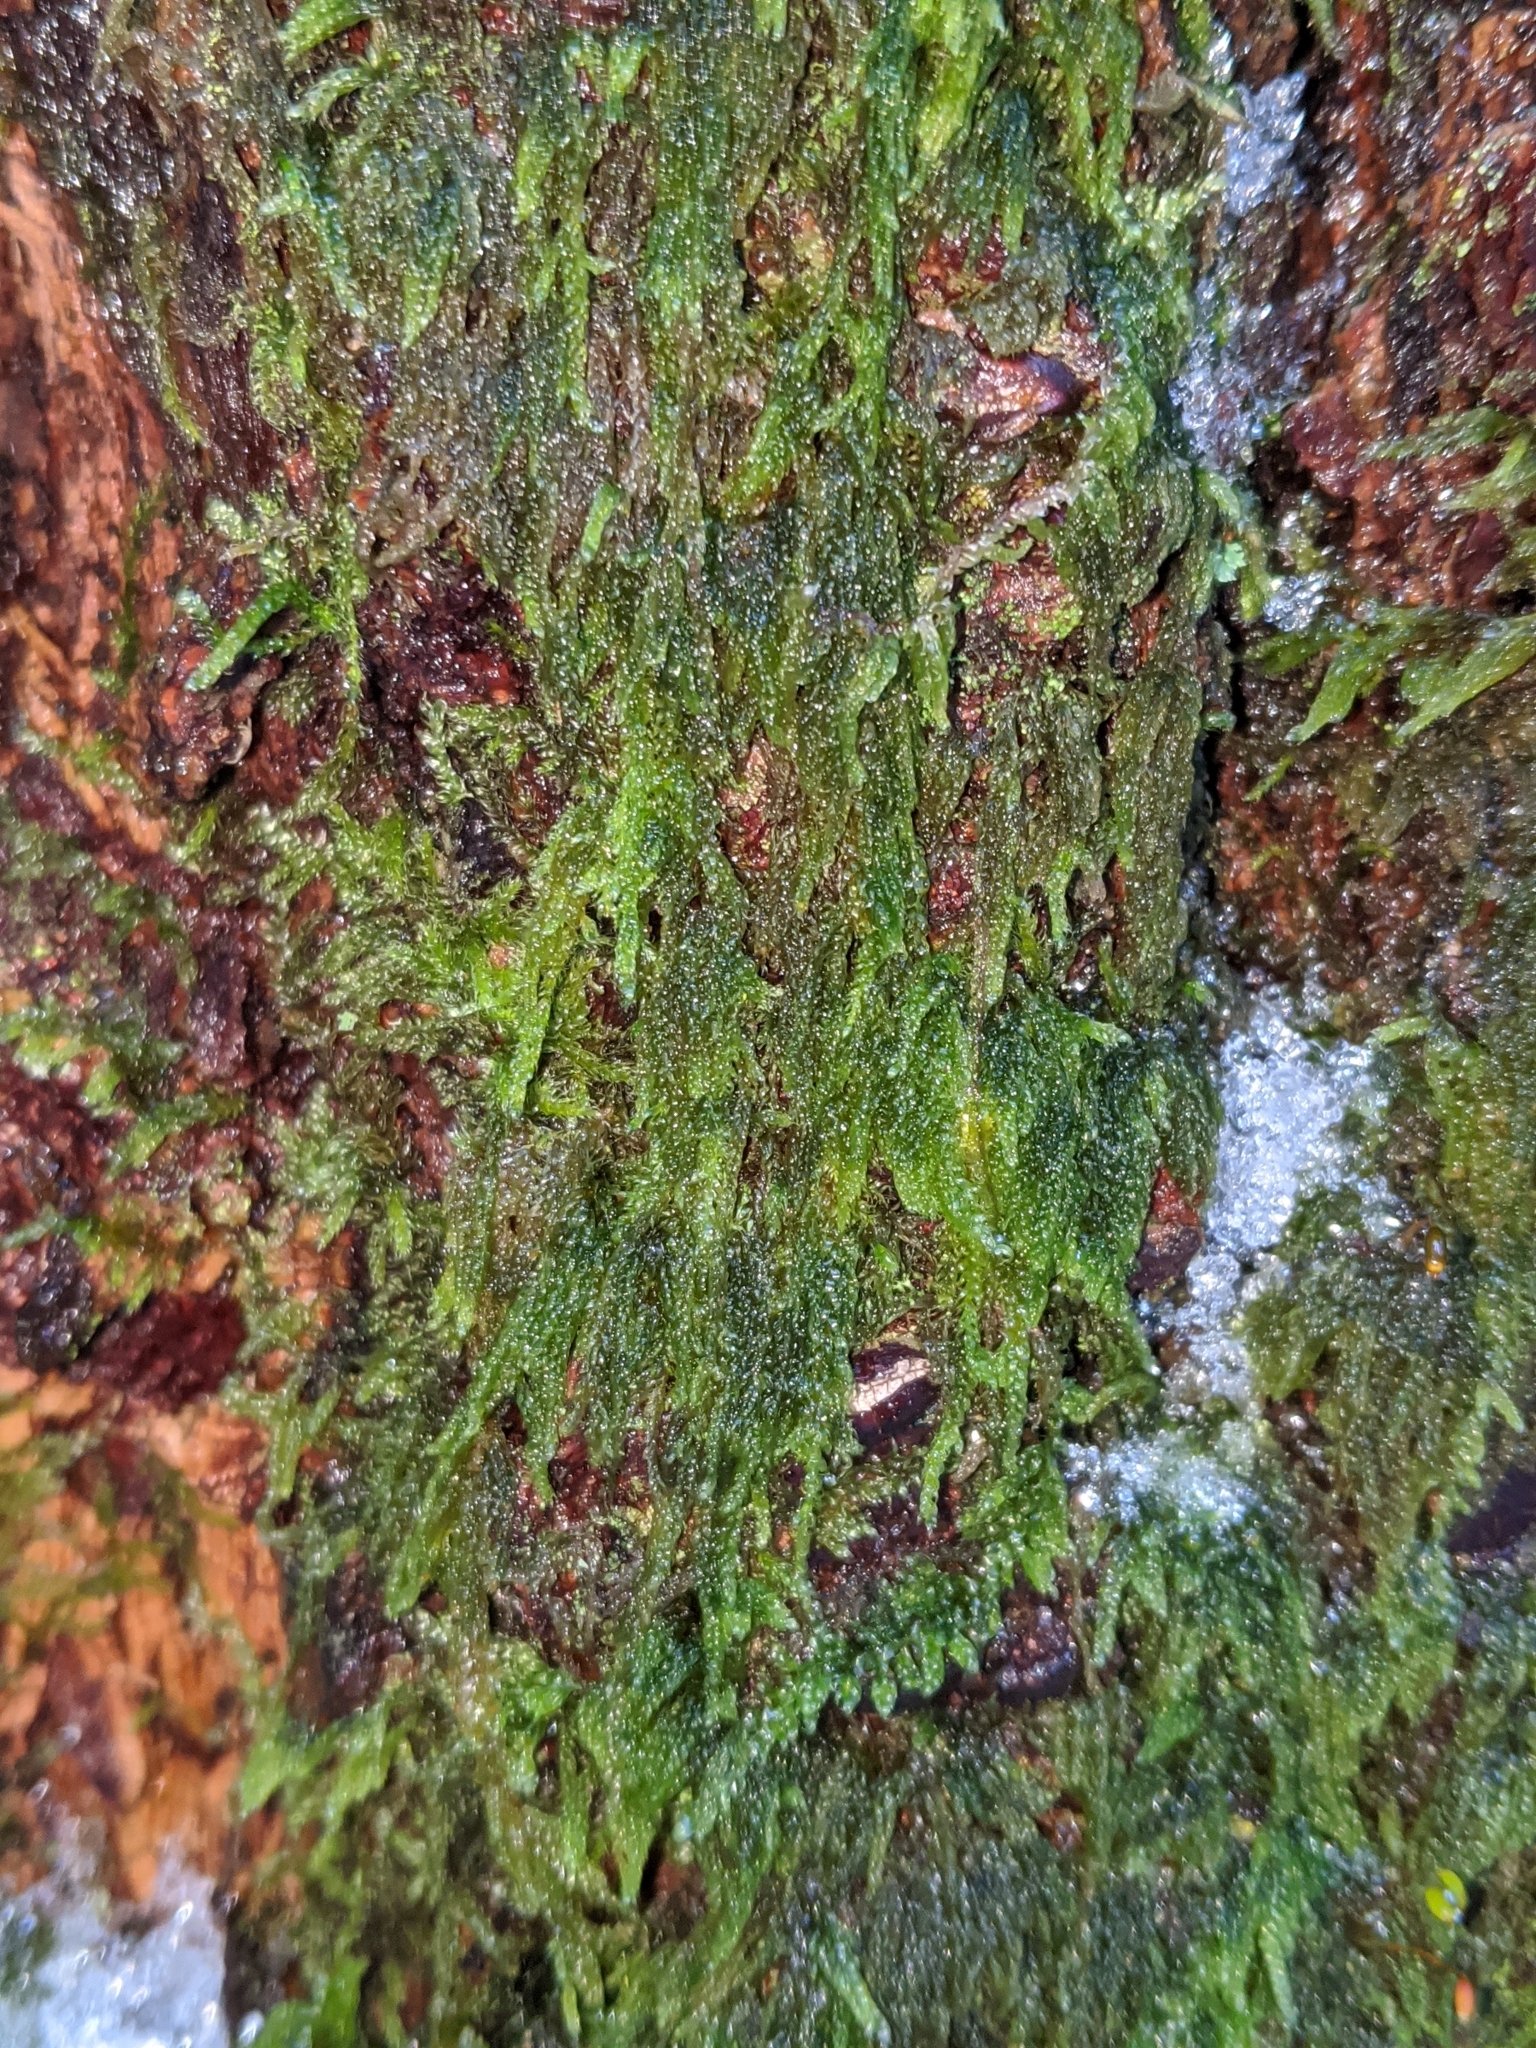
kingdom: Plantae
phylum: Bryophyta
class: Bryopsida
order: Hypnales
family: Pylaisiadelphaceae
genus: Trochophyllohypnum
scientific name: Trochophyllohypnum circinale
